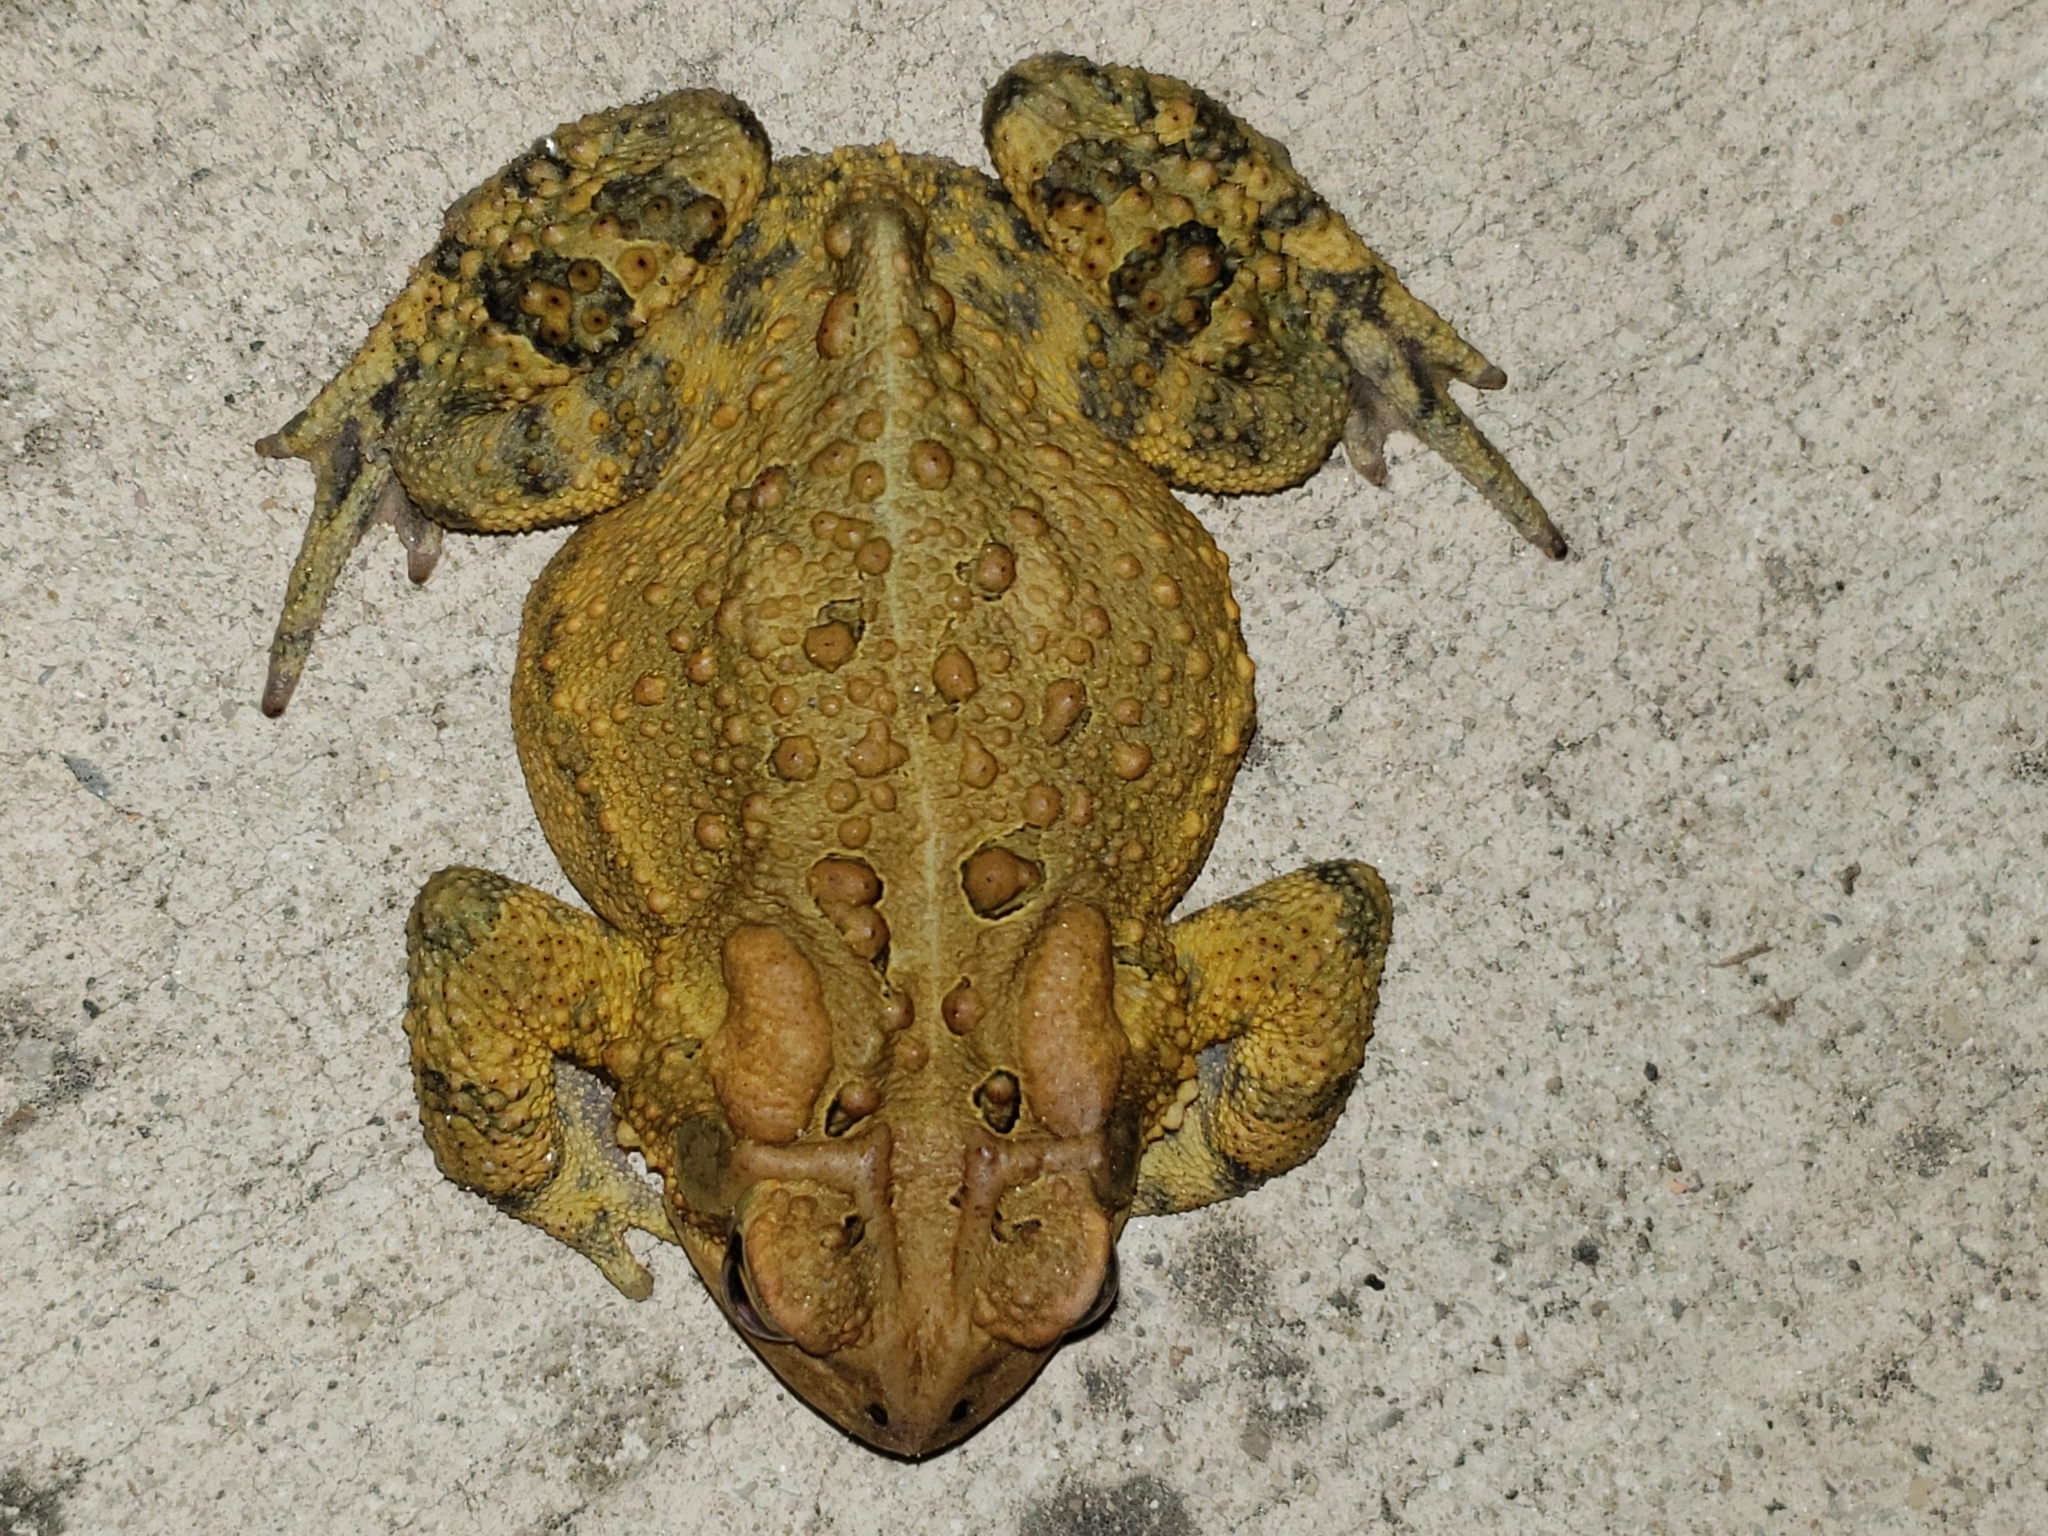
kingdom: Animalia
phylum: Chordata
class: Amphibia
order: Anura
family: Bufonidae
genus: Anaxyrus
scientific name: Anaxyrus americanus
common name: American toad
